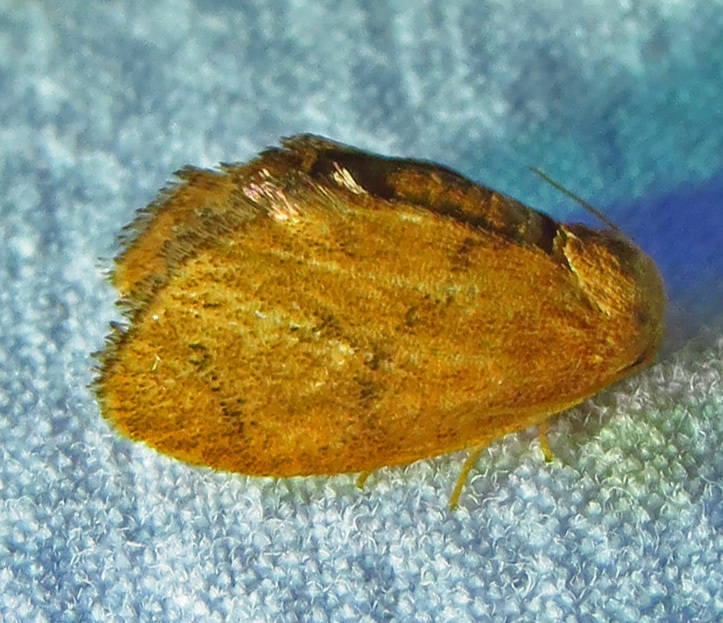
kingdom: Animalia
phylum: Arthropoda
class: Insecta
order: Lepidoptera
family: Limacodidae
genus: Heterogenea
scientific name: Heterogenea shurtleffi
